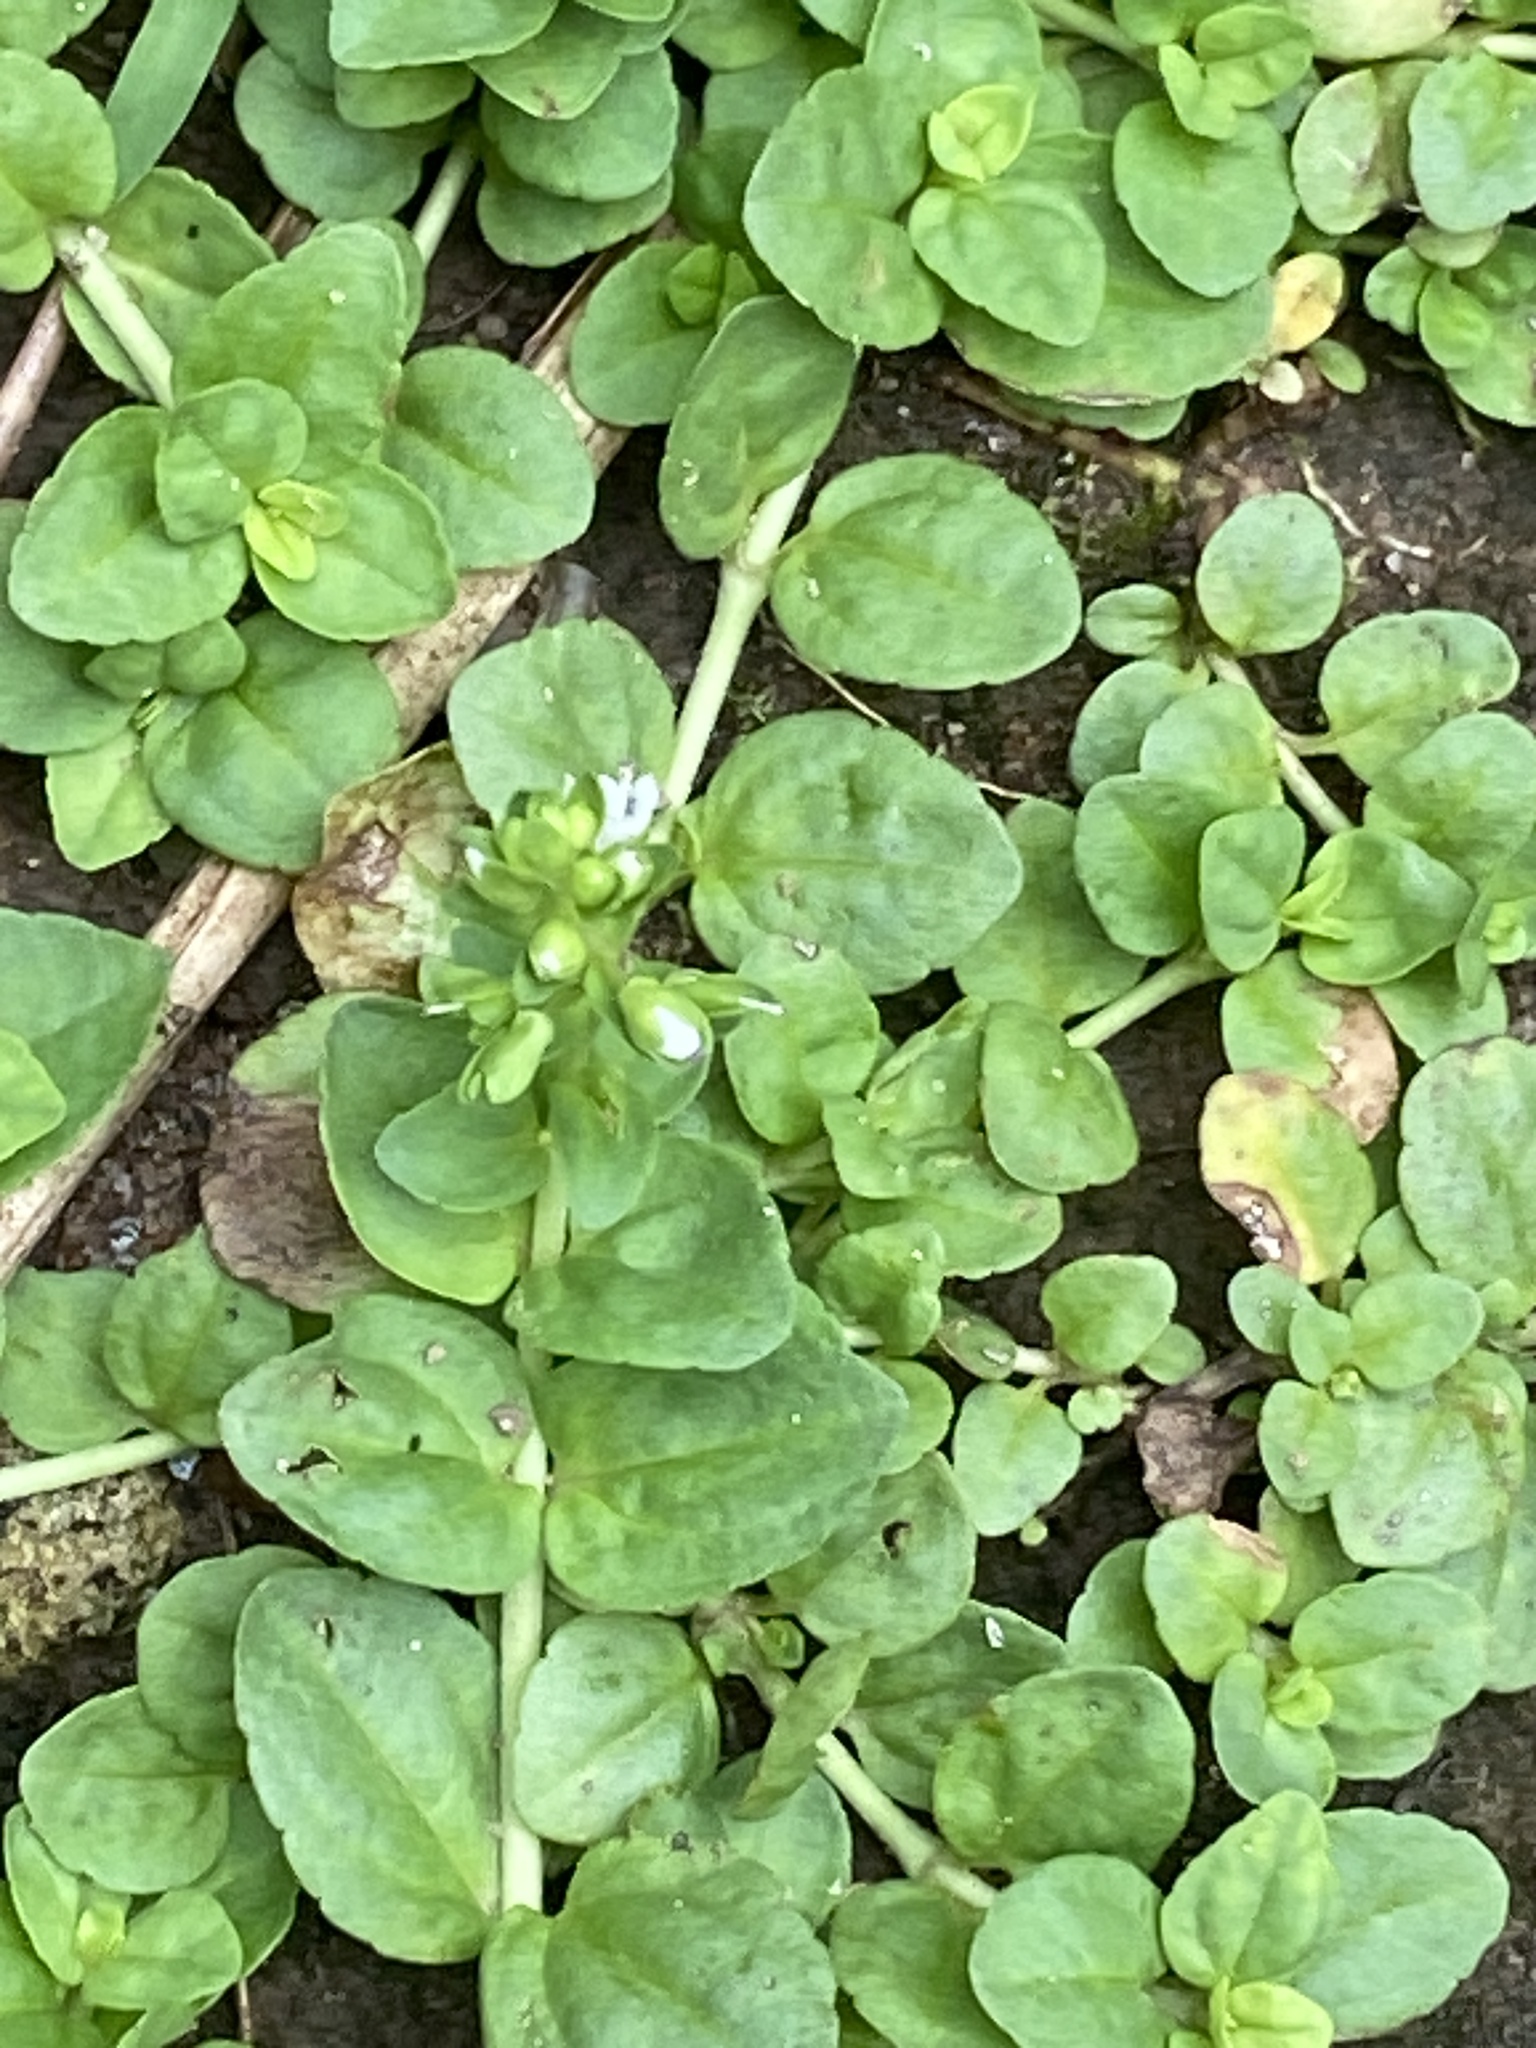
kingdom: Plantae
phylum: Tracheophyta
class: Magnoliopsida
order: Lamiales
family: Plantaginaceae
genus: Veronica
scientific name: Veronica serpyllifolia
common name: Thyme-leaved speedwell
